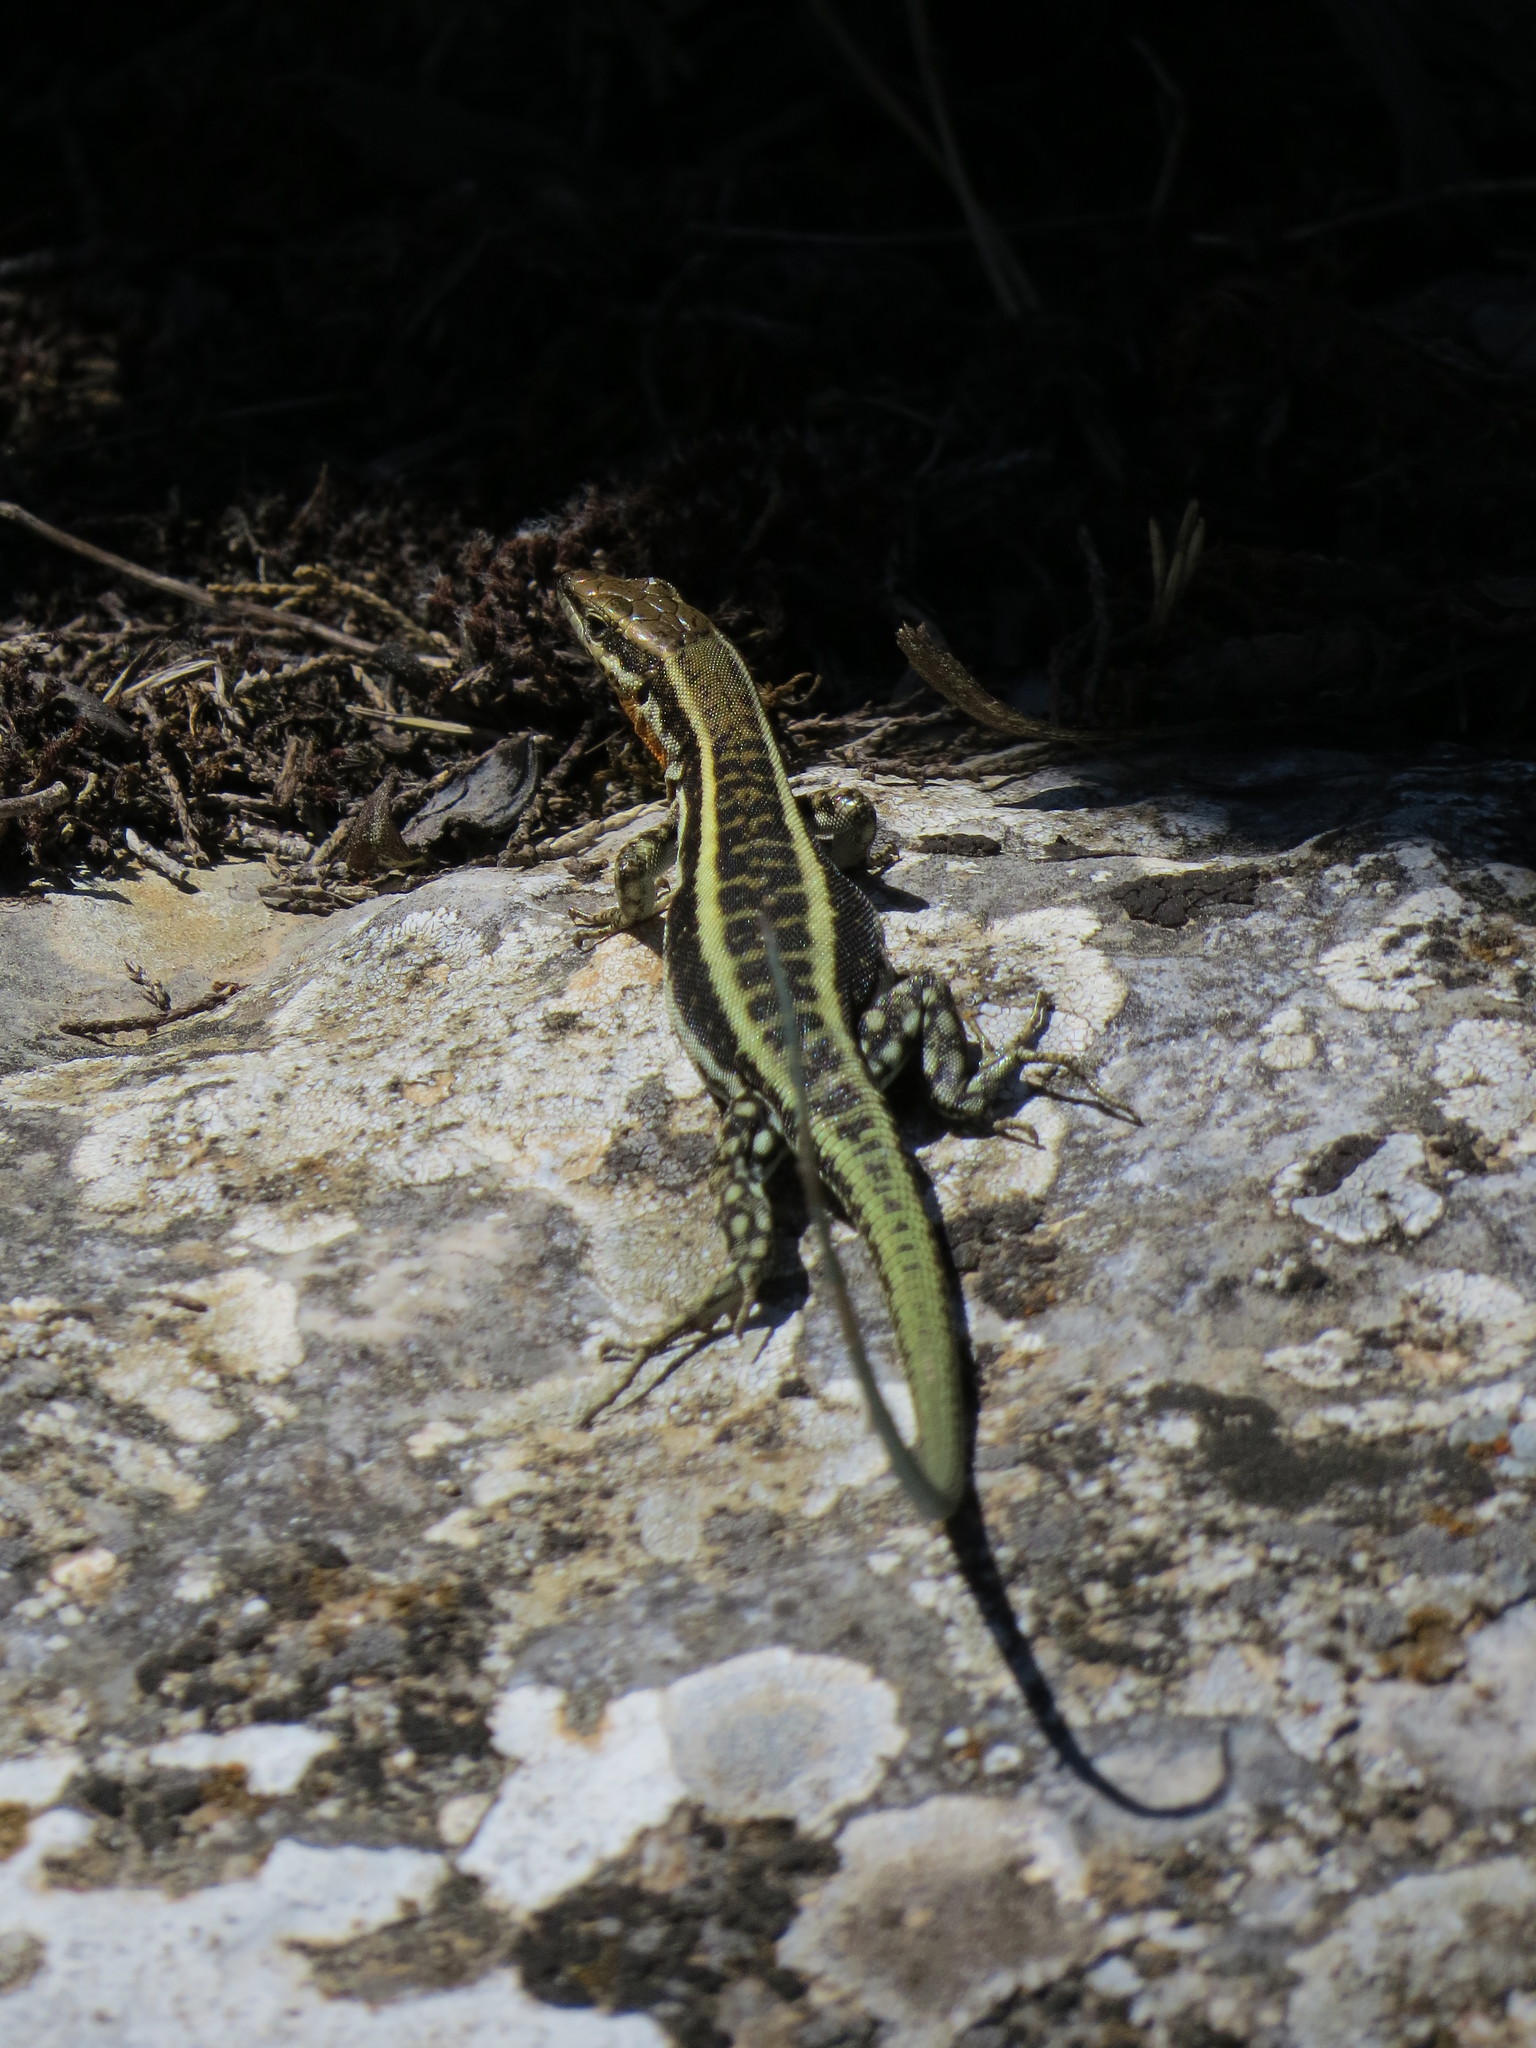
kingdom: Animalia
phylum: Chordata
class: Squamata
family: Lacertidae
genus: Anatololacerta
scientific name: Anatololacerta finikensis
